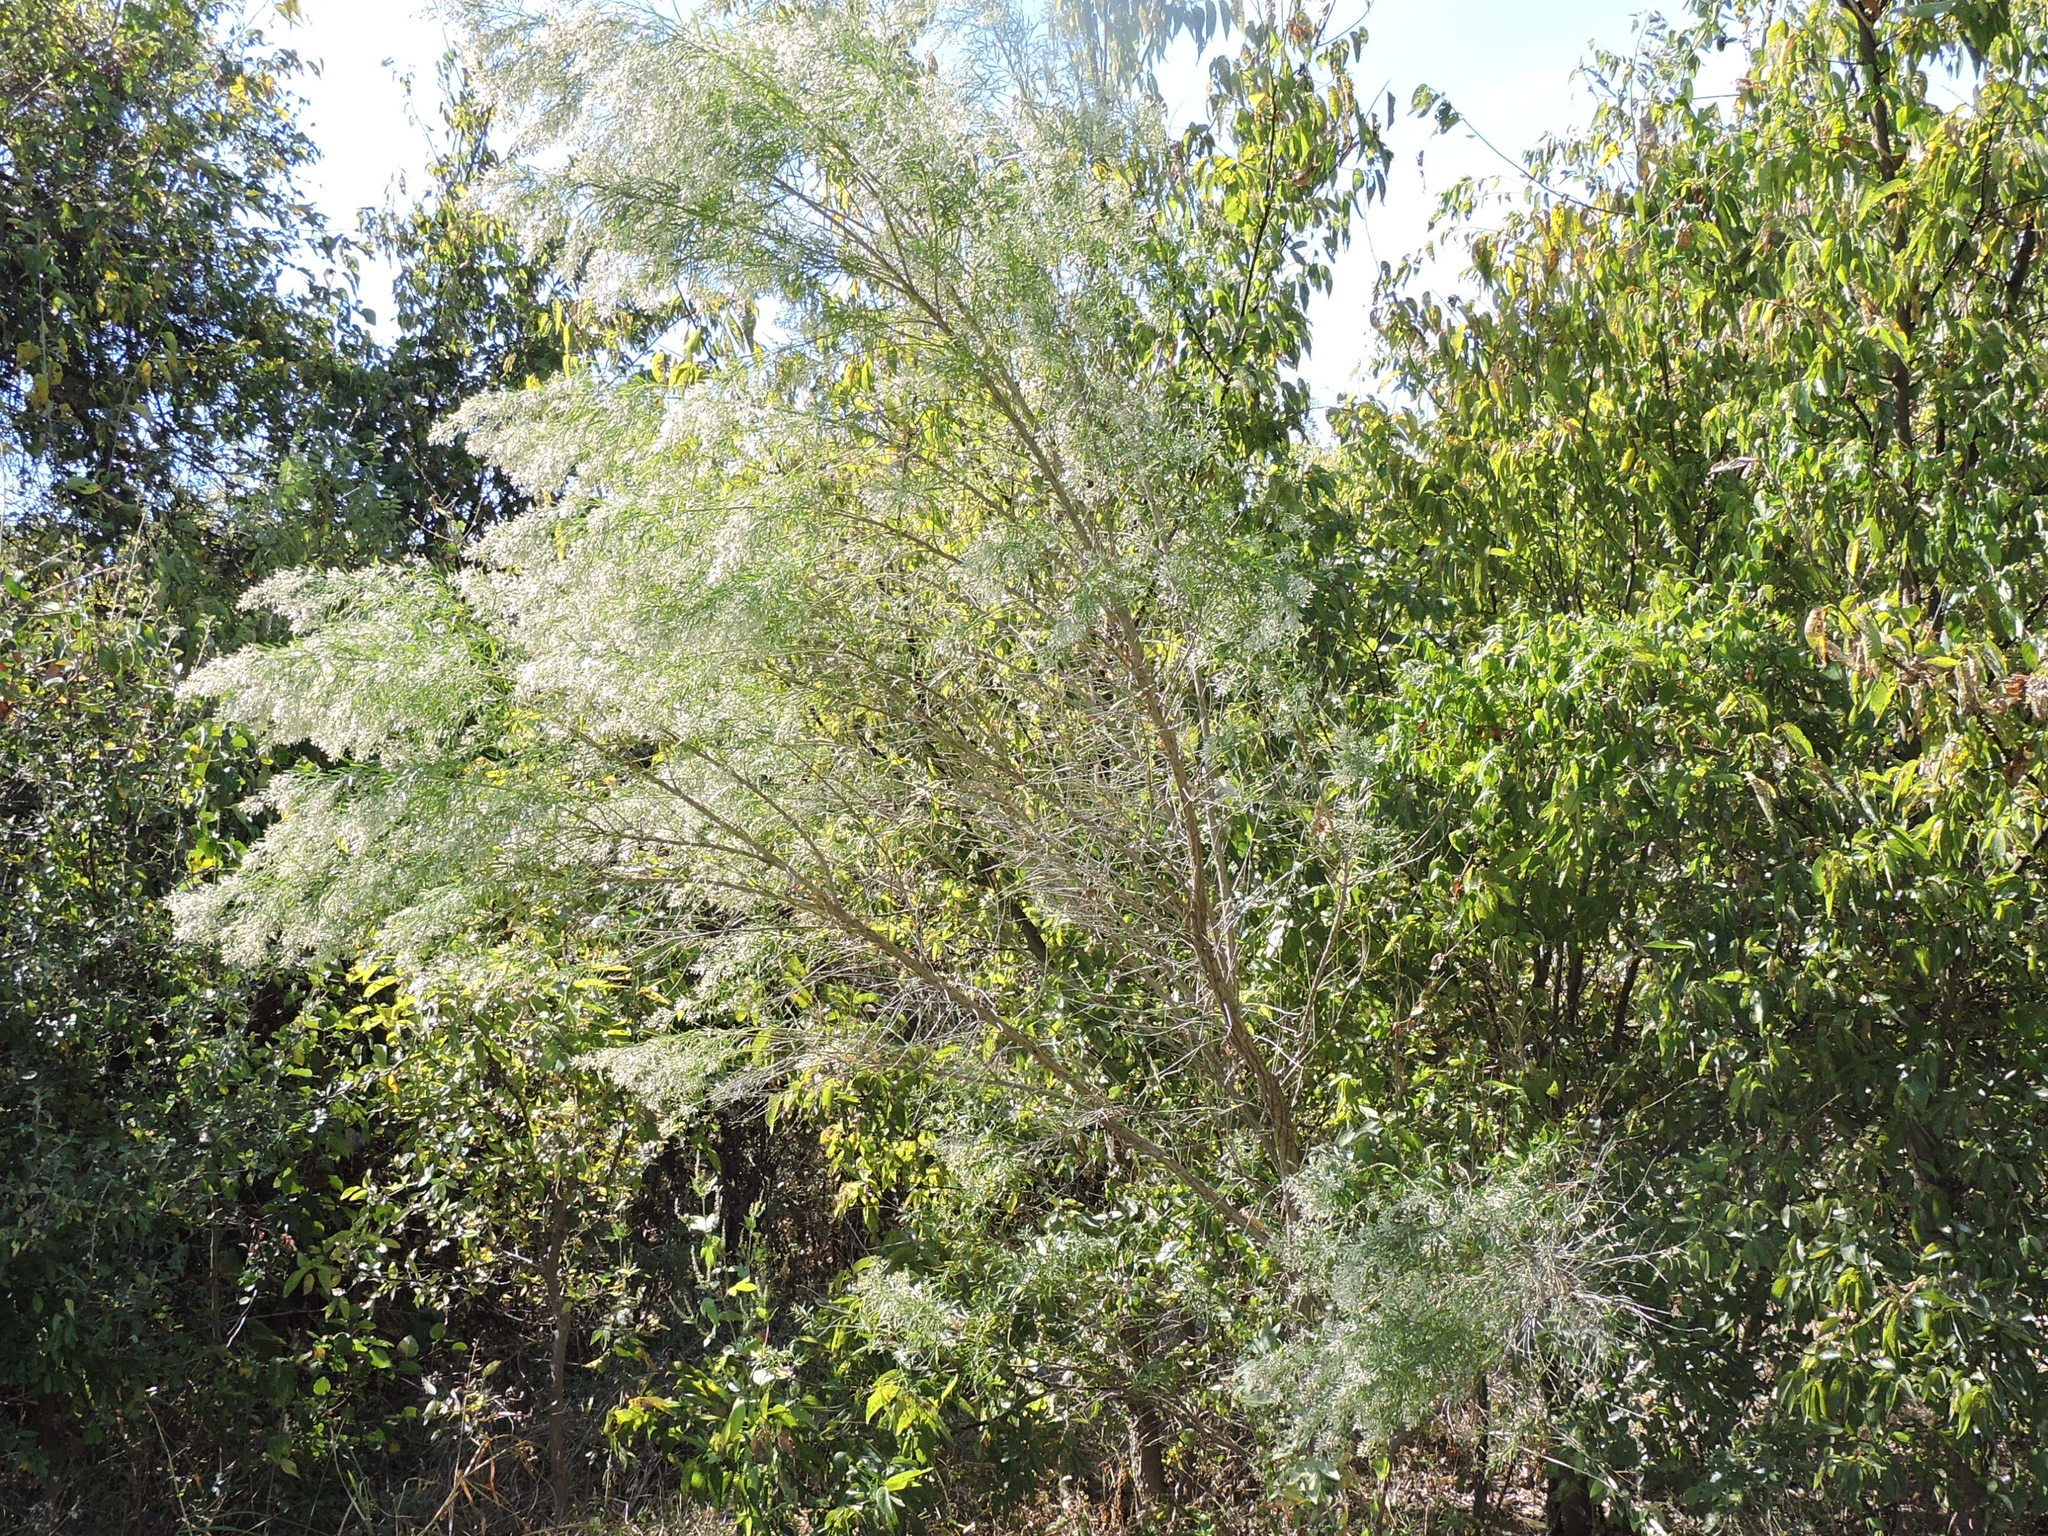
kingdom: Plantae
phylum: Tracheophyta
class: Magnoliopsida
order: Asterales
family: Asteraceae
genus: Baccharis
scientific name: Baccharis neglecta
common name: Roosevelt-weed
